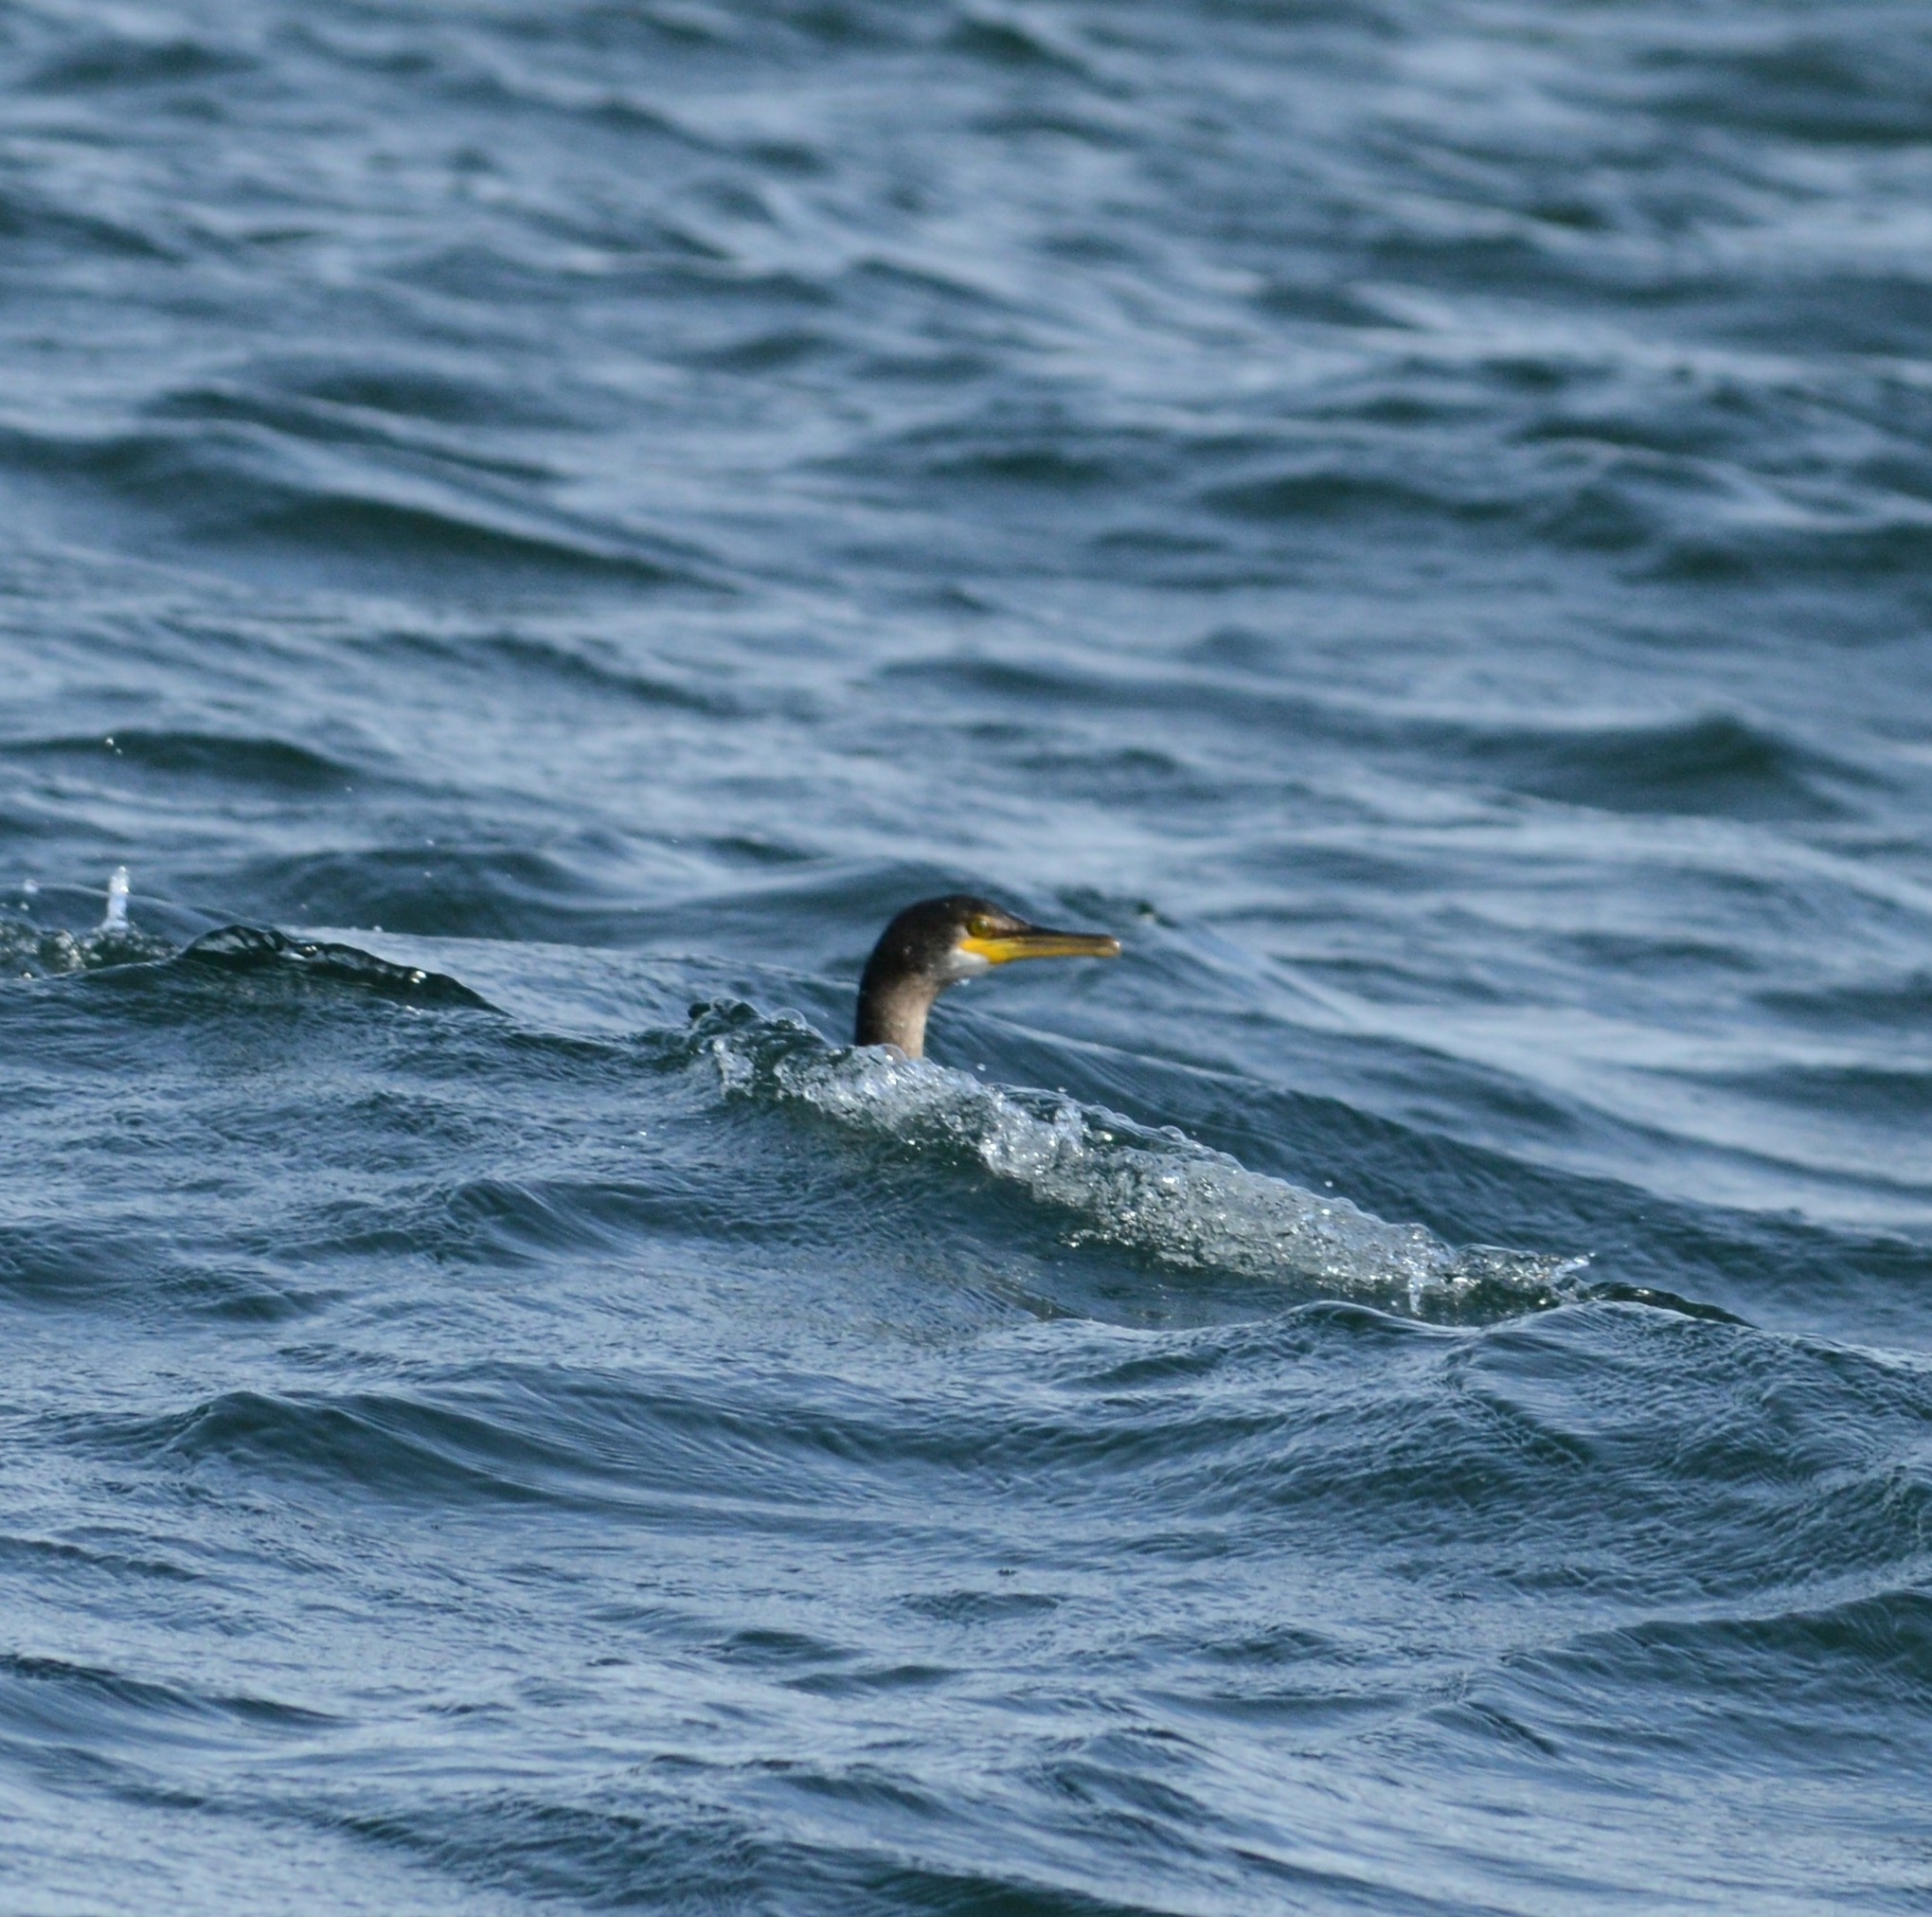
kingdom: Animalia
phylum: Chordata
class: Aves
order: Suliformes
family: Phalacrocoracidae
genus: Phalacrocorax
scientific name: Phalacrocorax aristotelis
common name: European shag
